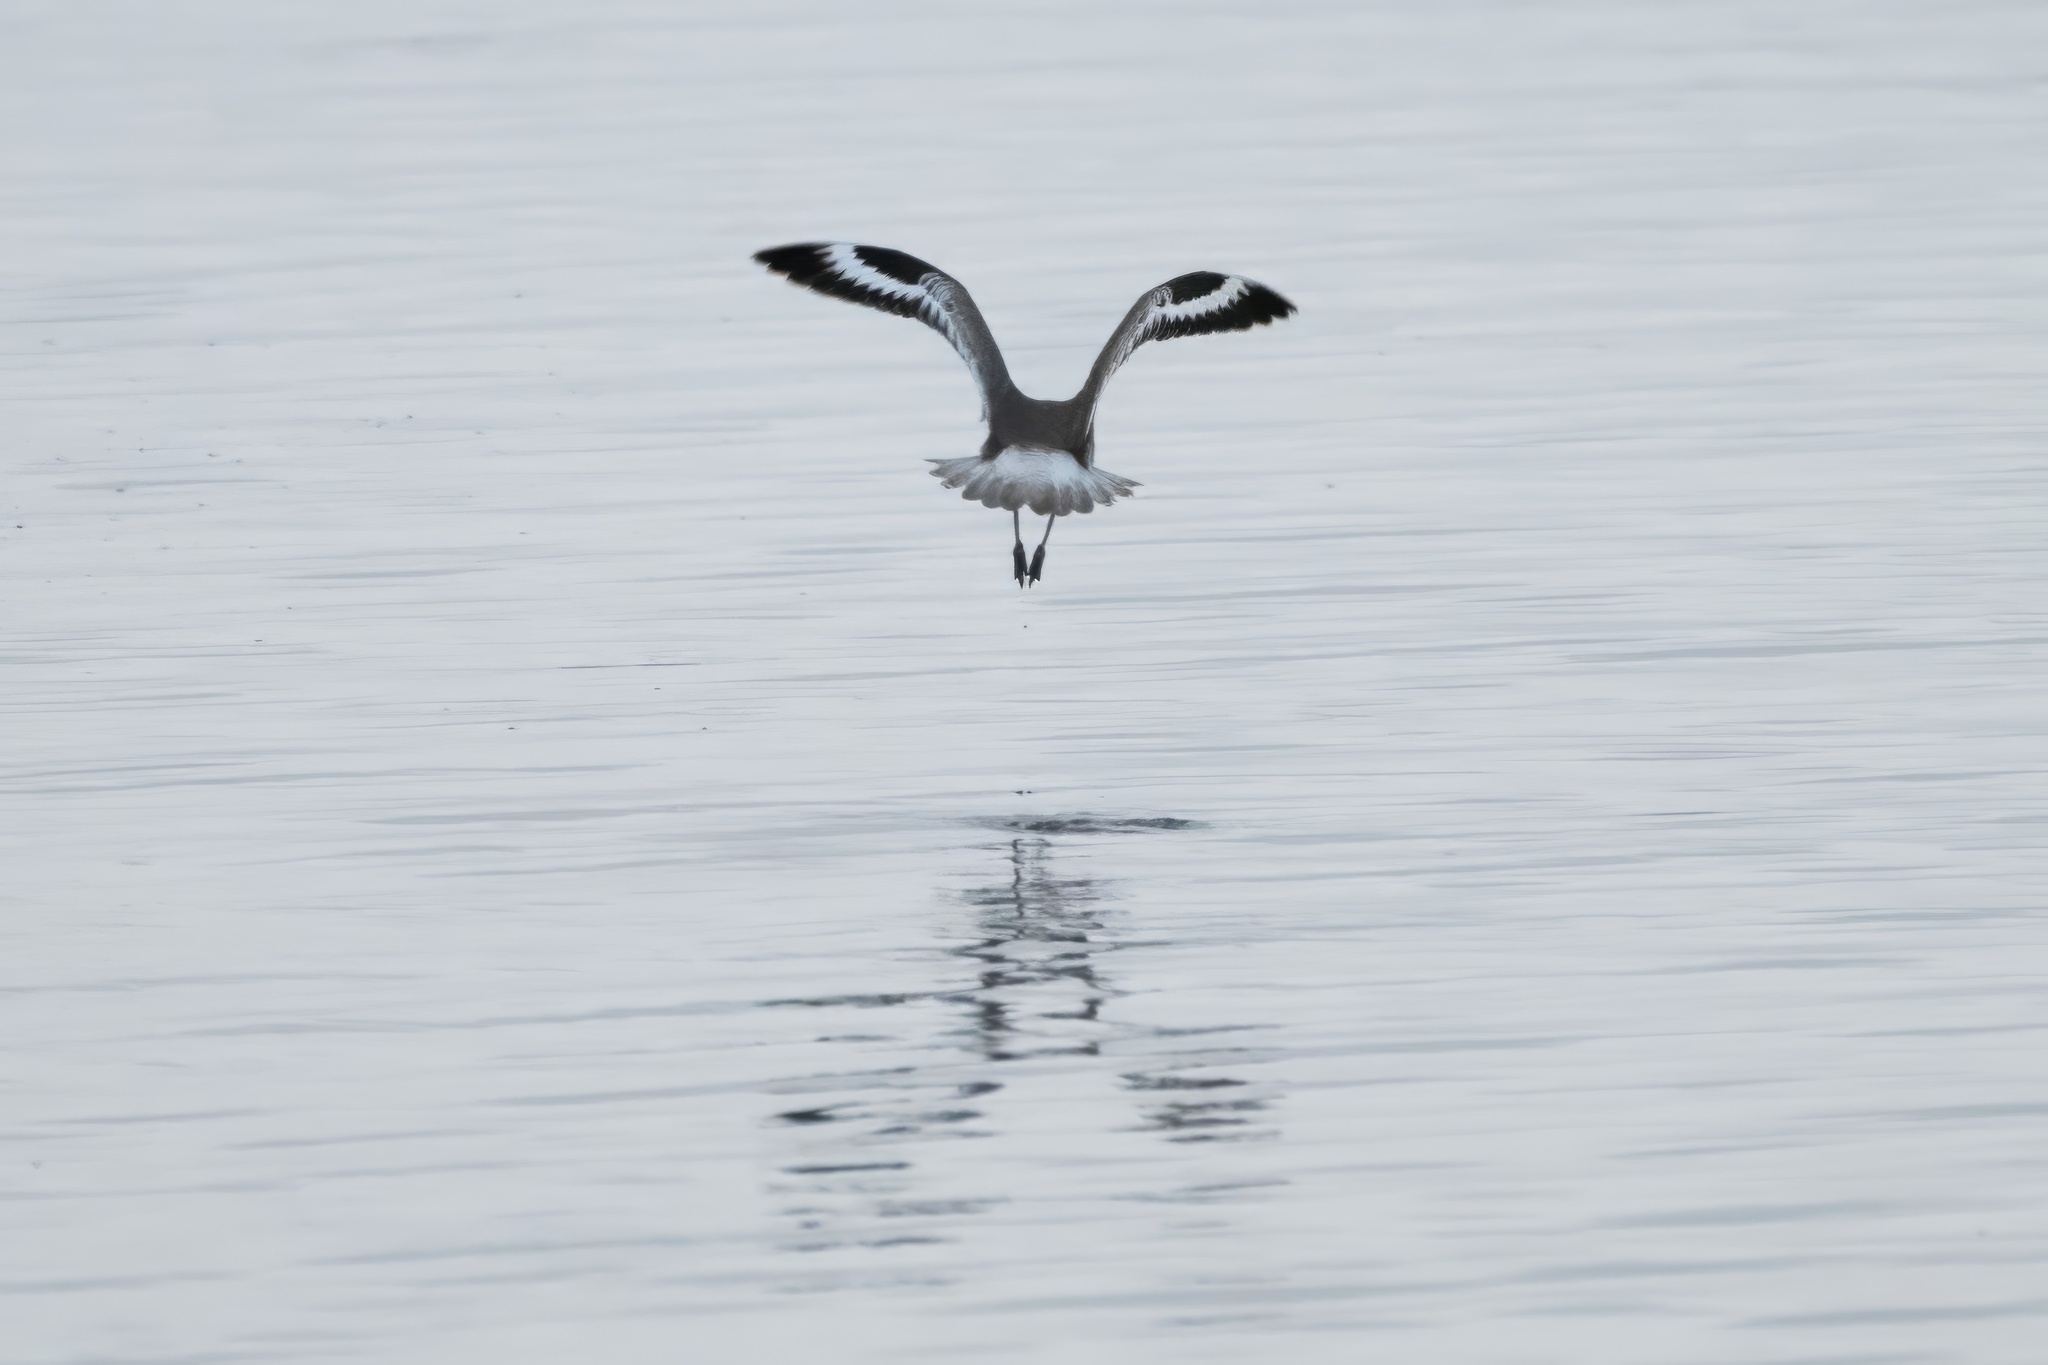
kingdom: Animalia
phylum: Chordata
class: Aves
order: Charadriiformes
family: Scolopacidae
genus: Tringa
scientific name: Tringa semipalmata
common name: Willet
